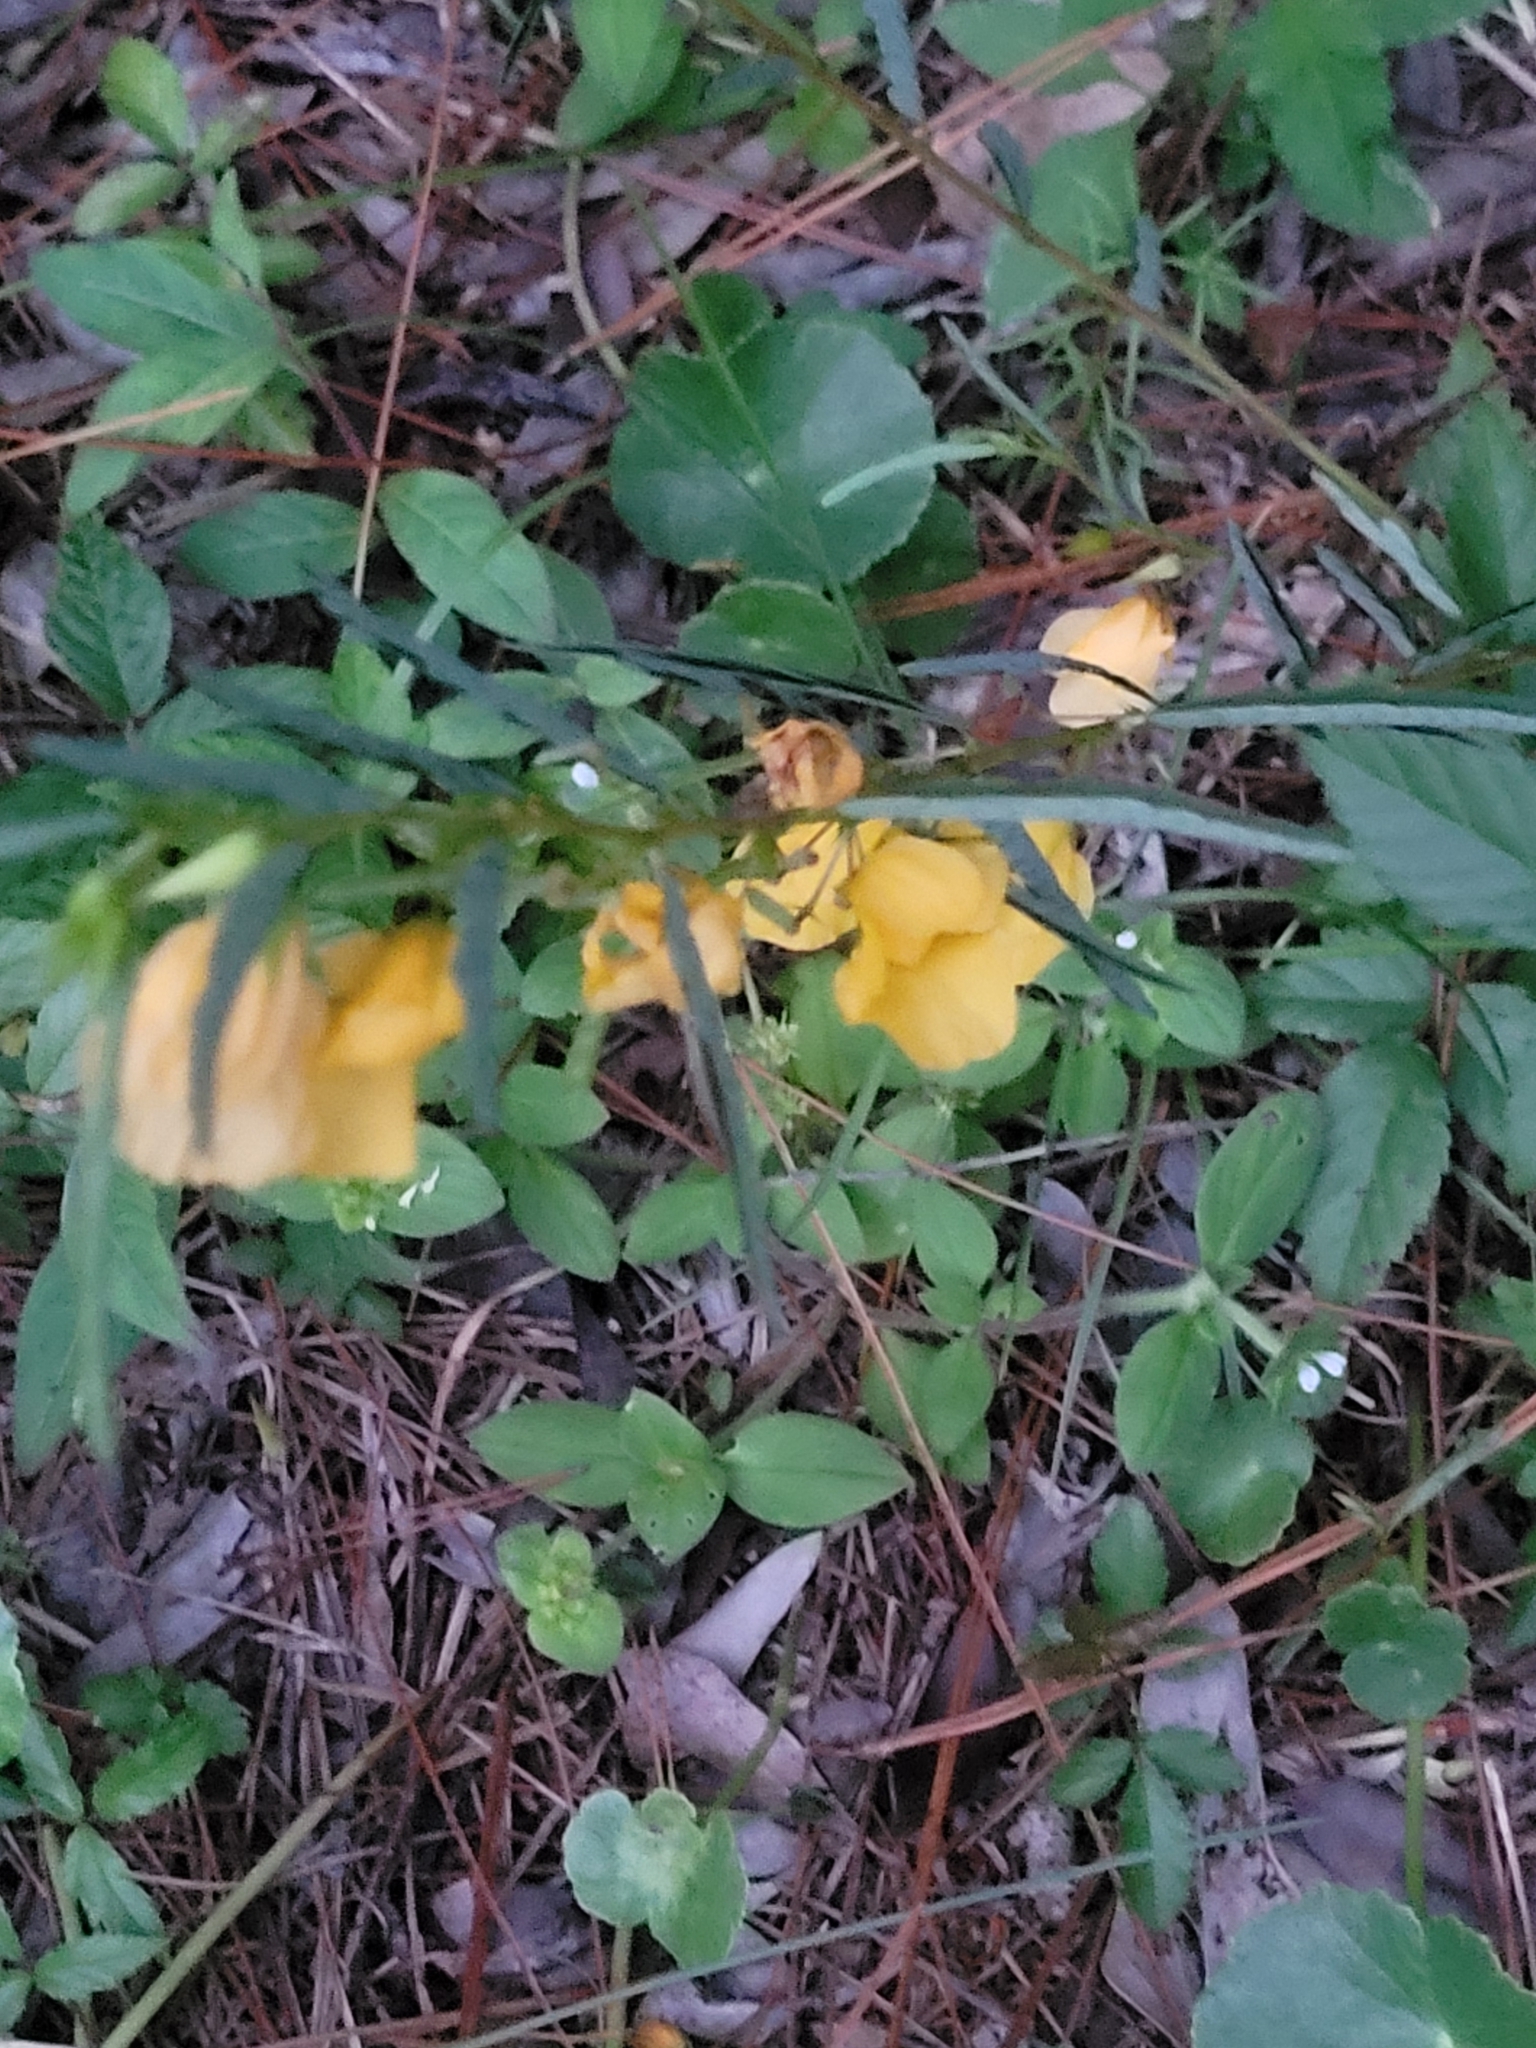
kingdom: Plantae
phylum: Tracheophyta
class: Magnoliopsida
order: Fabales
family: Fabaceae
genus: Chamaecrista
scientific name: Chamaecrista fasciculata
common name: Golden cassia
